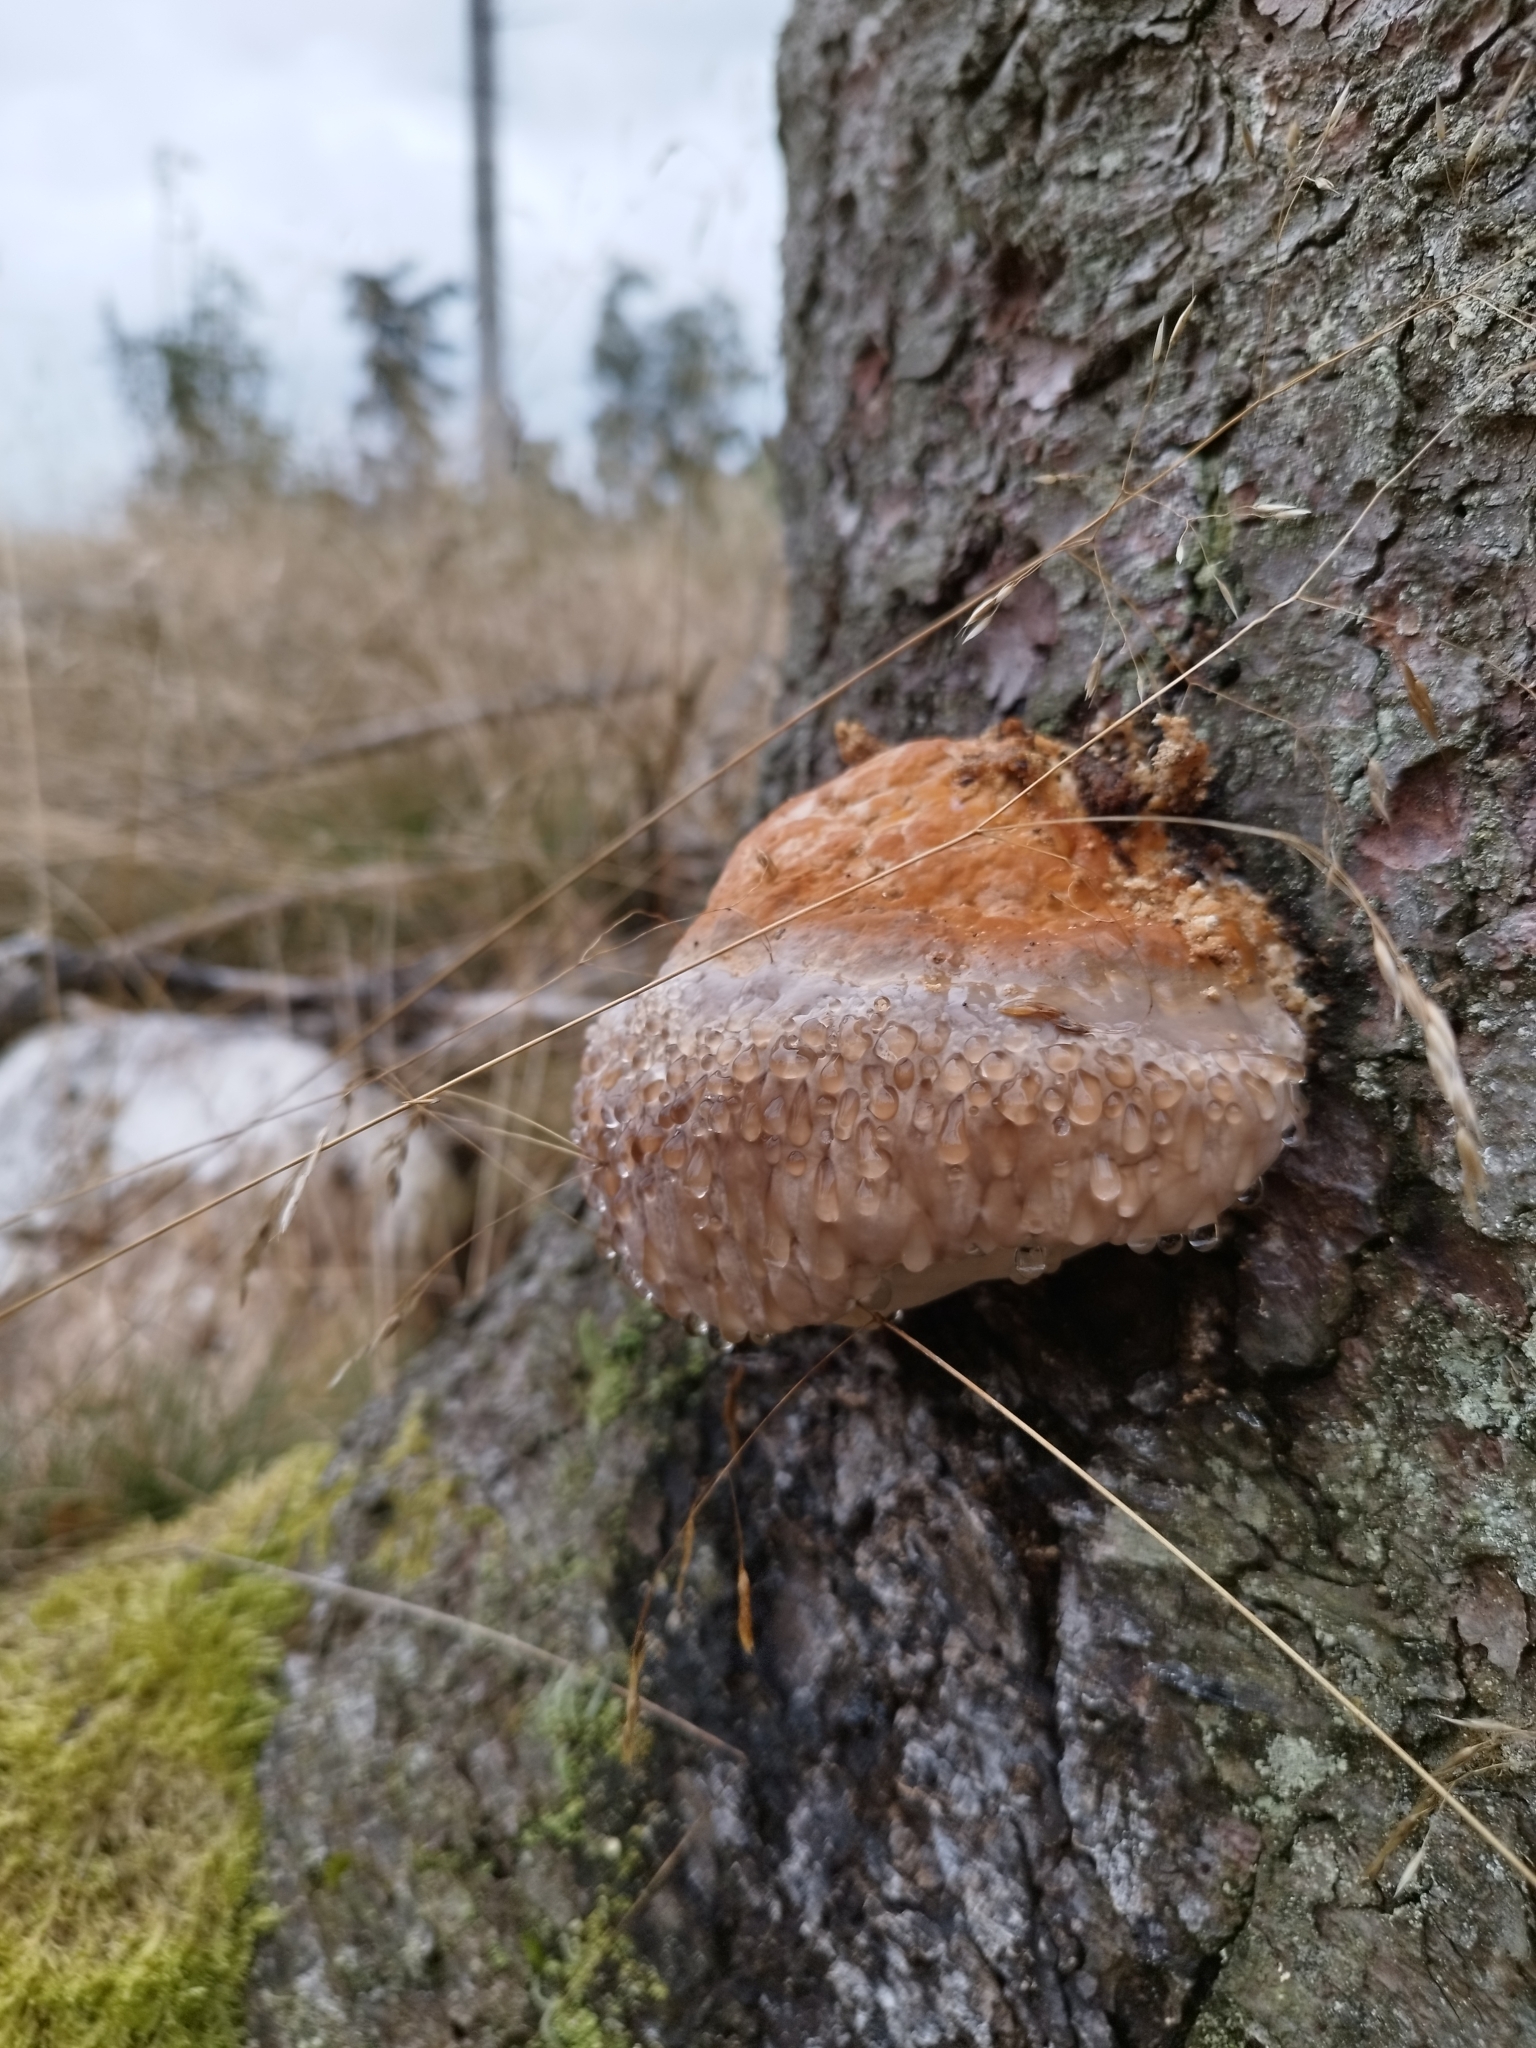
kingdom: Fungi
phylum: Basidiomycota
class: Agaricomycetes
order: Polyporales
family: Fomitopsidaceae
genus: Fomitopsis
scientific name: Fomitopsis pinicola
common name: Red-belted bracket
